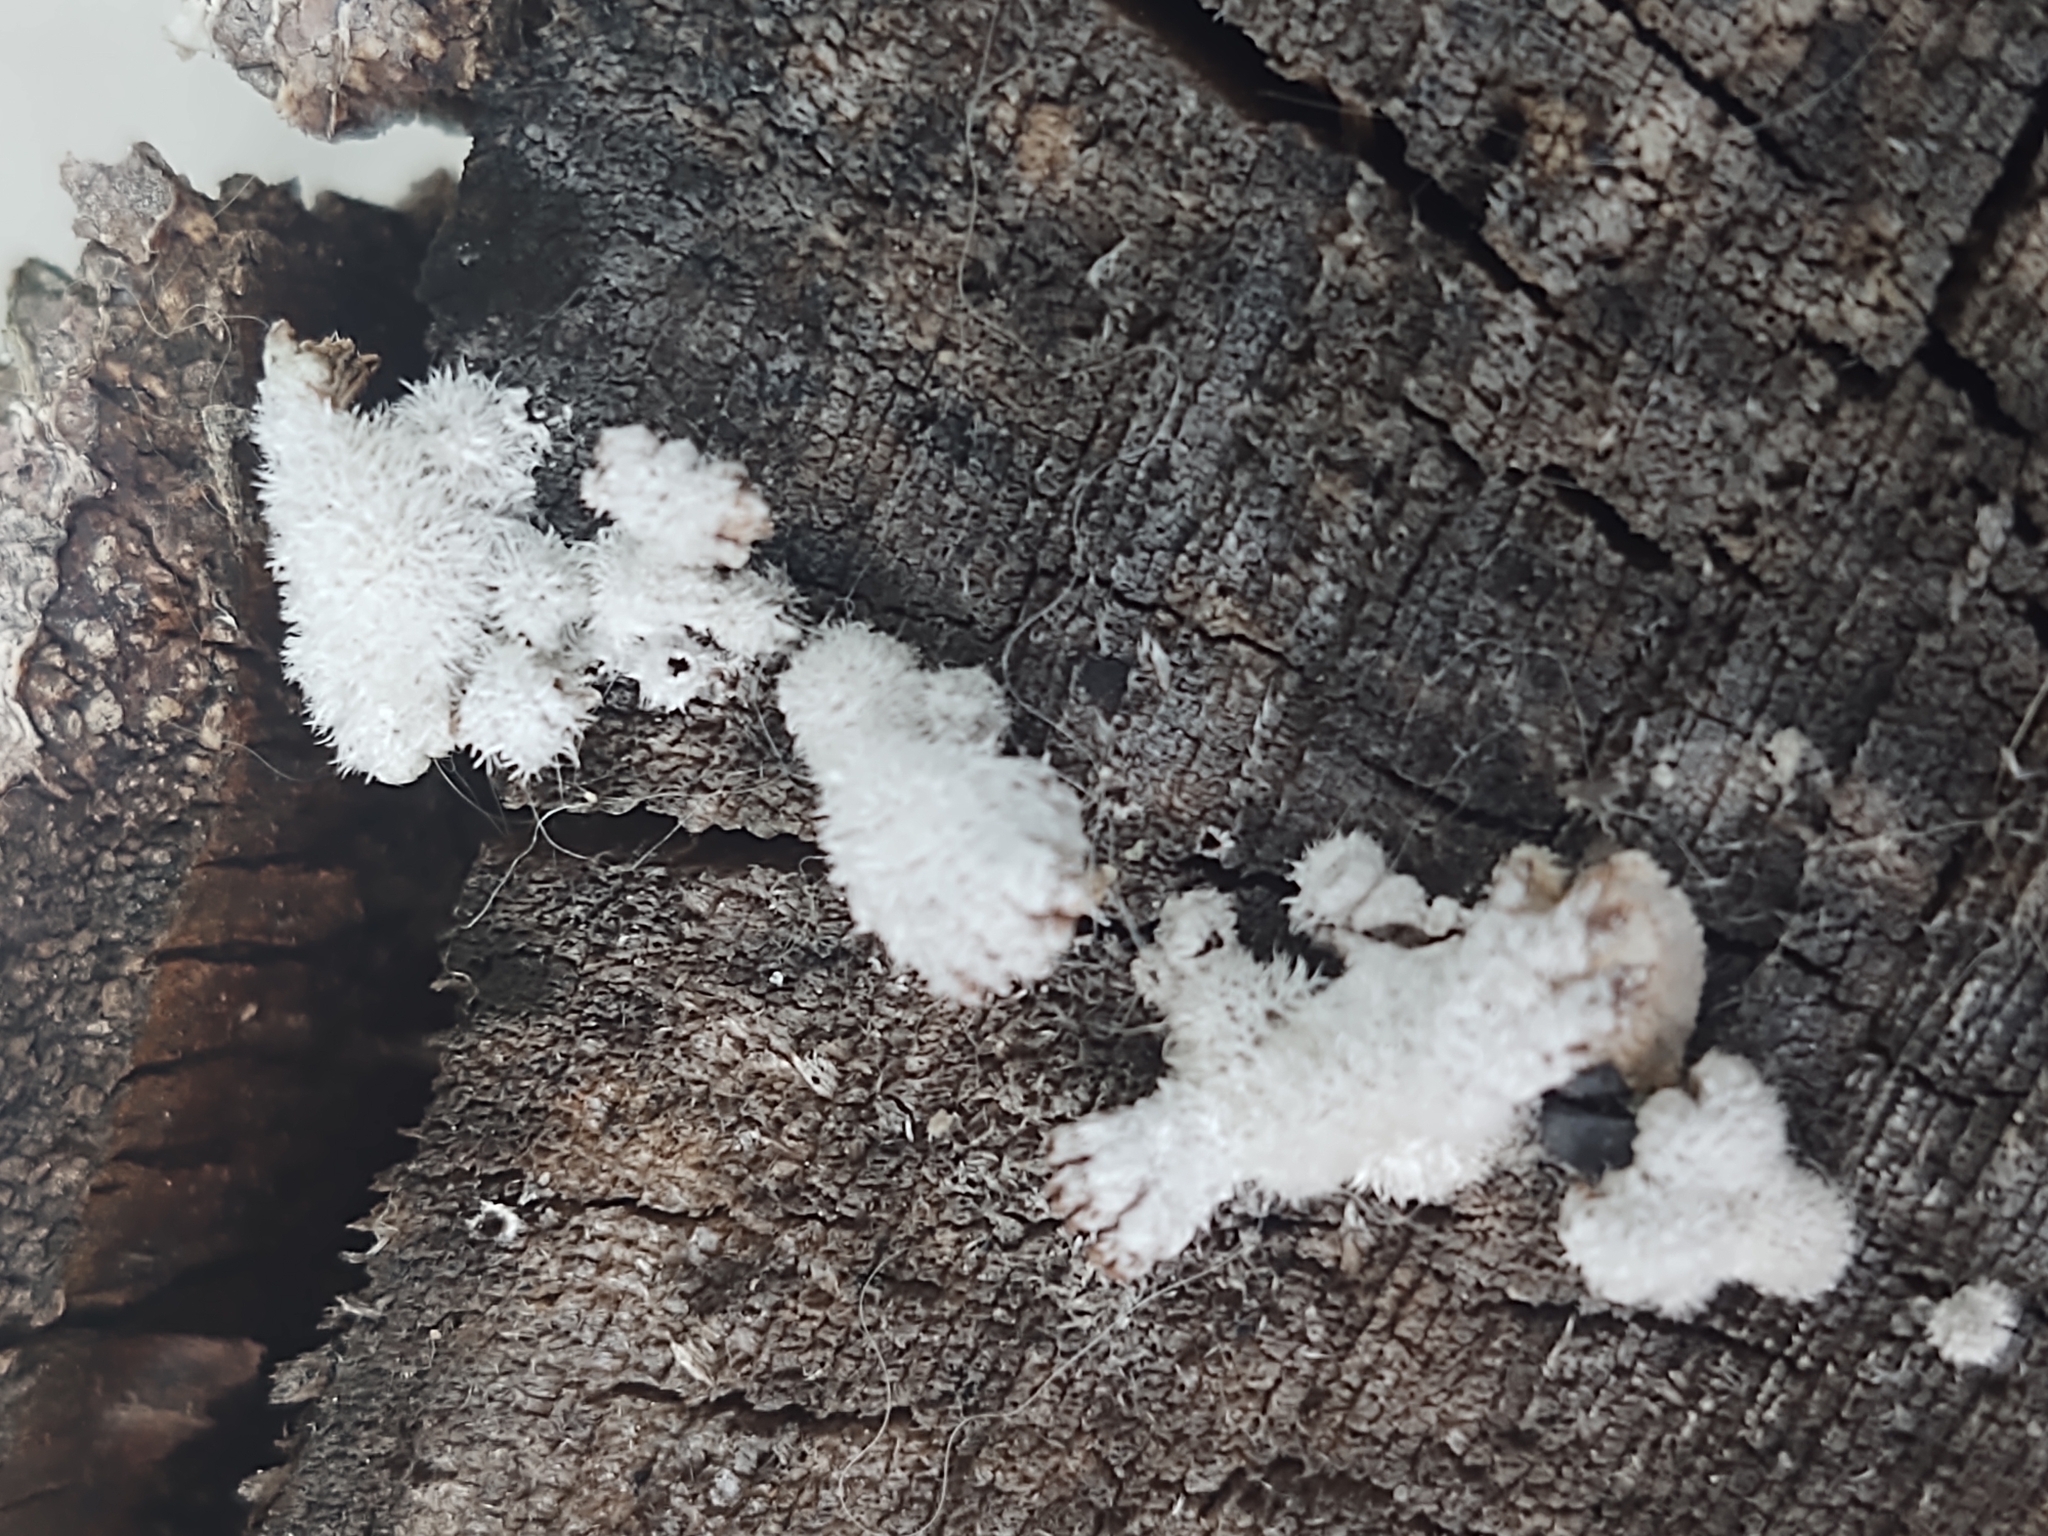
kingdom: Fungi
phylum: Basidiomycota
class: Agaricomycetes
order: Agaricales
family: Schizophyllaceae
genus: Schizophyllum
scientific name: Schizophyllum commune
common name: Common porecrust
